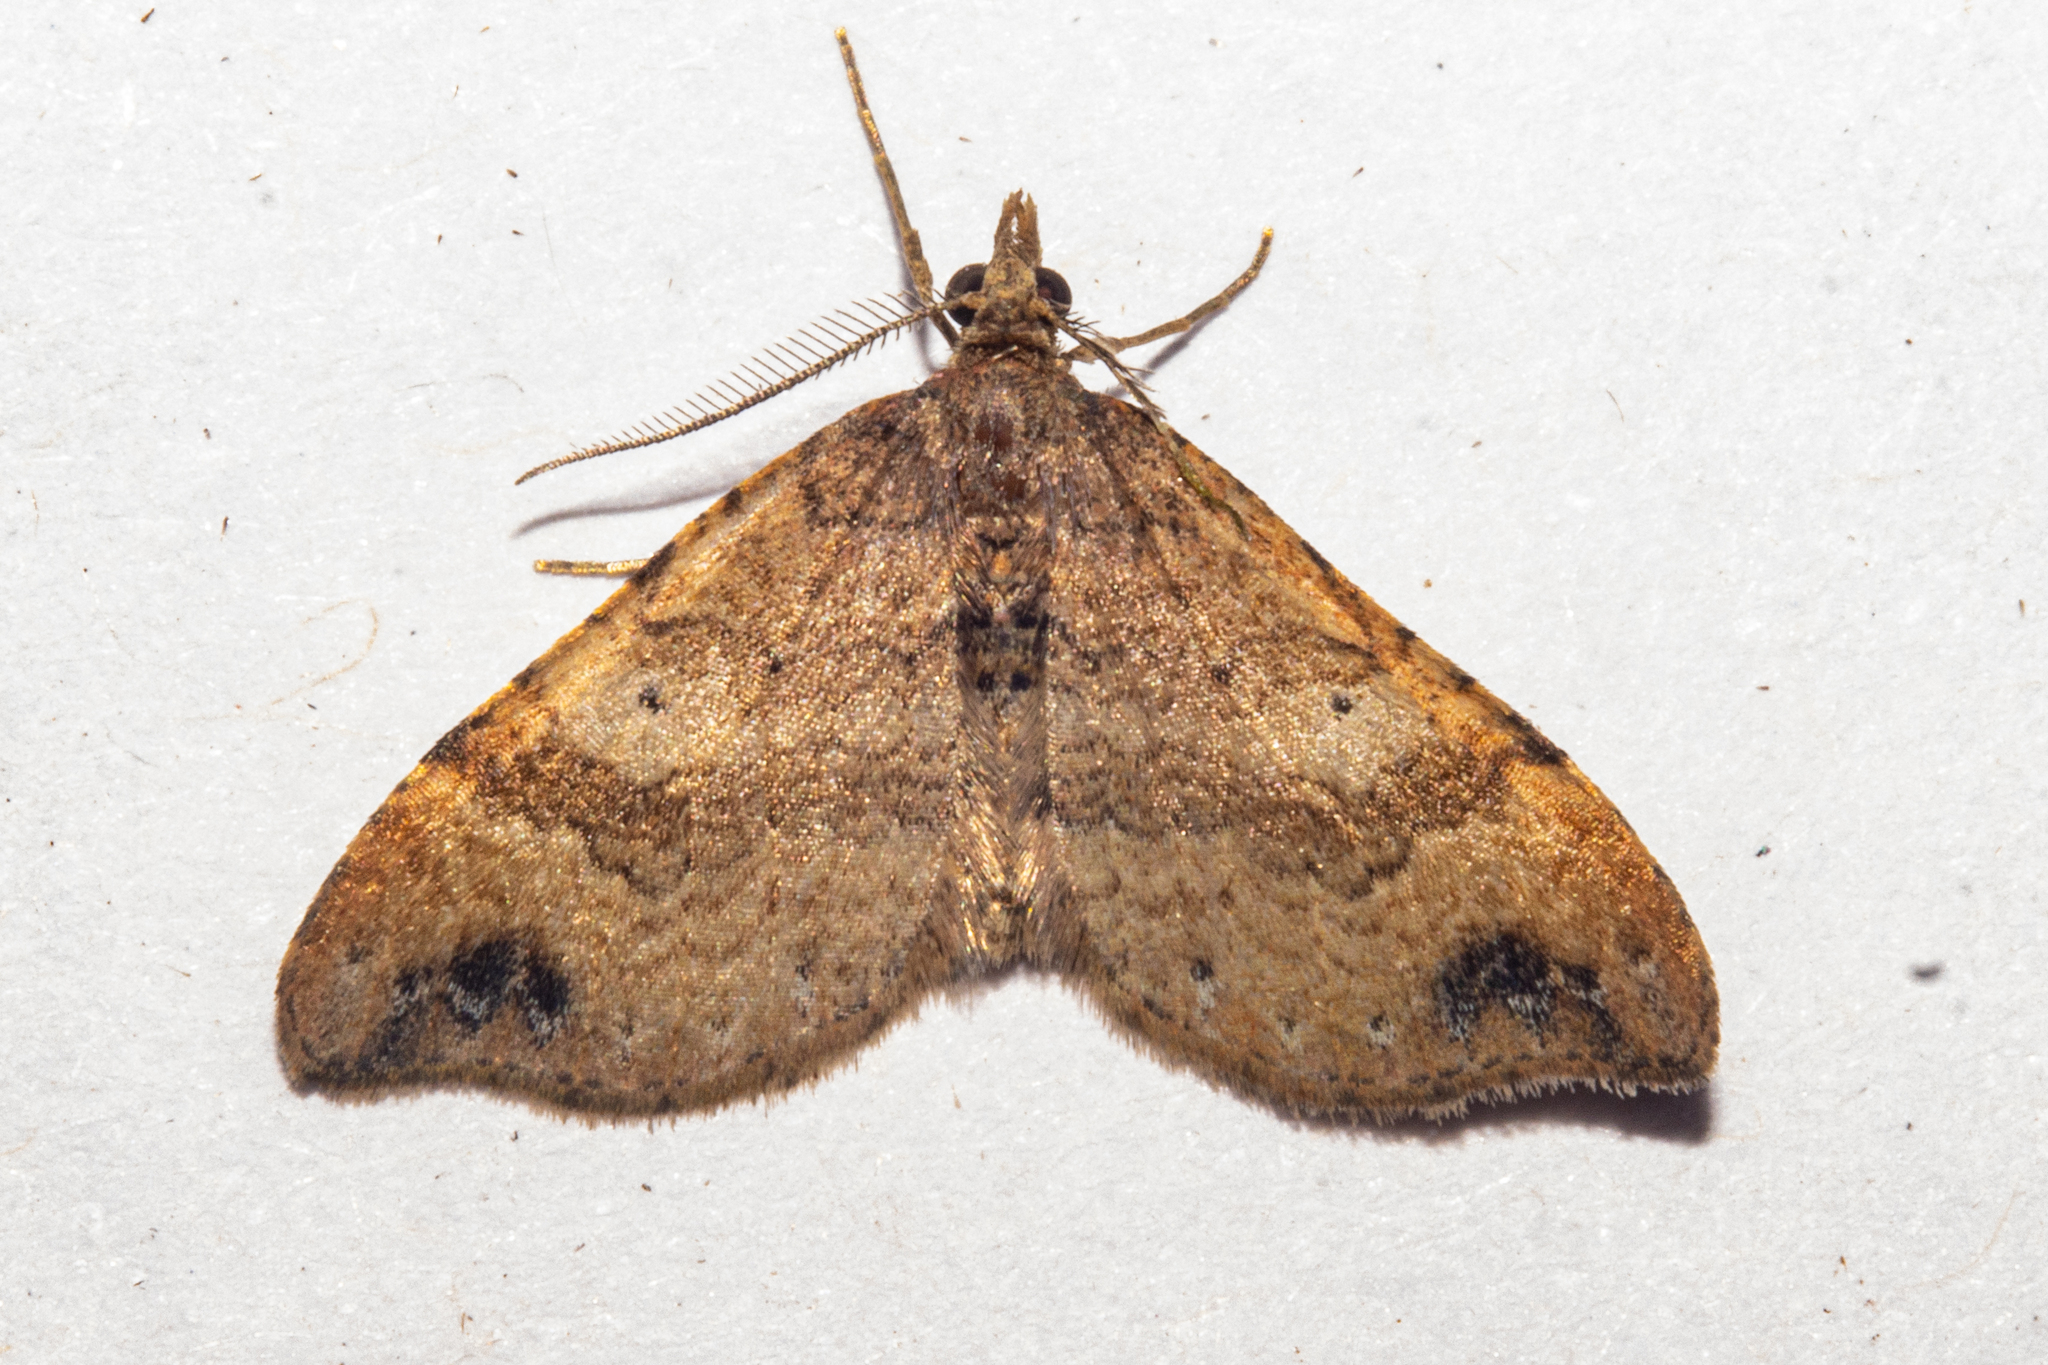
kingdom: Animalia
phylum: Arthropoda
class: Insecta
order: Lepidoptera
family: Geometridae
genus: Homodotis
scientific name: Homodotis falcata
